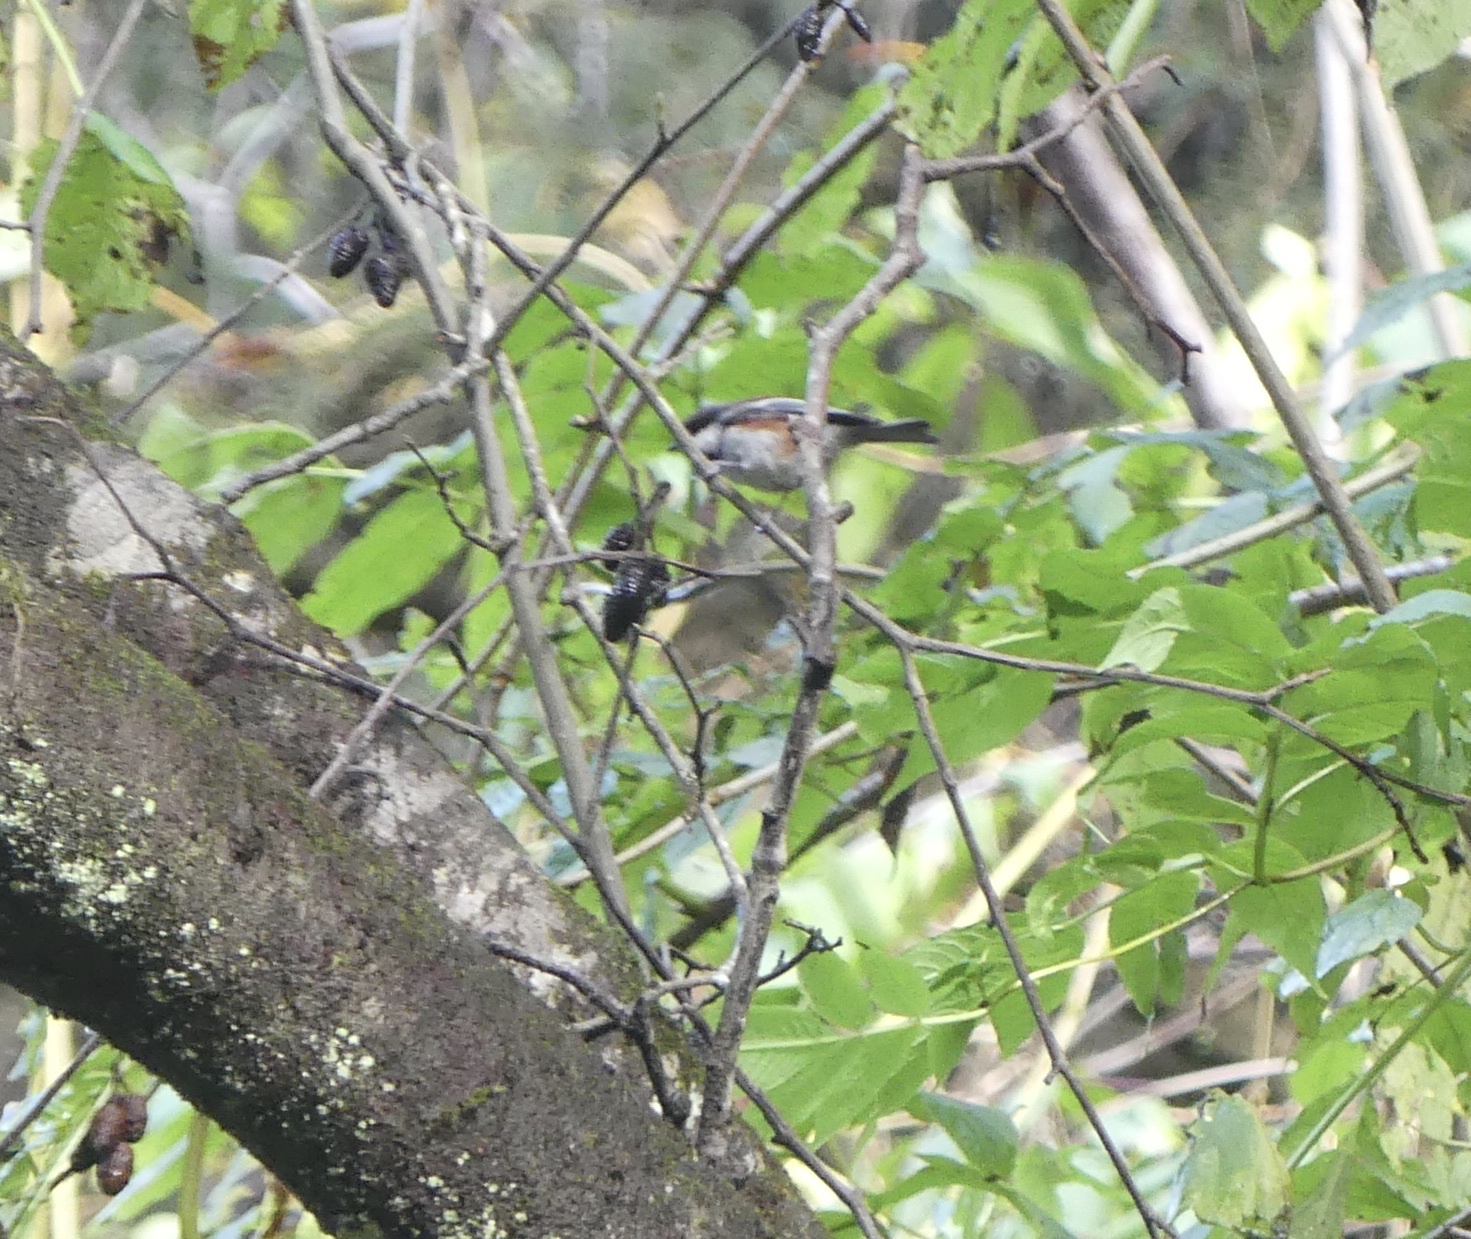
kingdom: Animalia
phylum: Chordata
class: Aves
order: Passeriformes
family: Paridae
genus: Poecile
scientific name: Poecile rufescens
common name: Chestnut-backed chickadee
